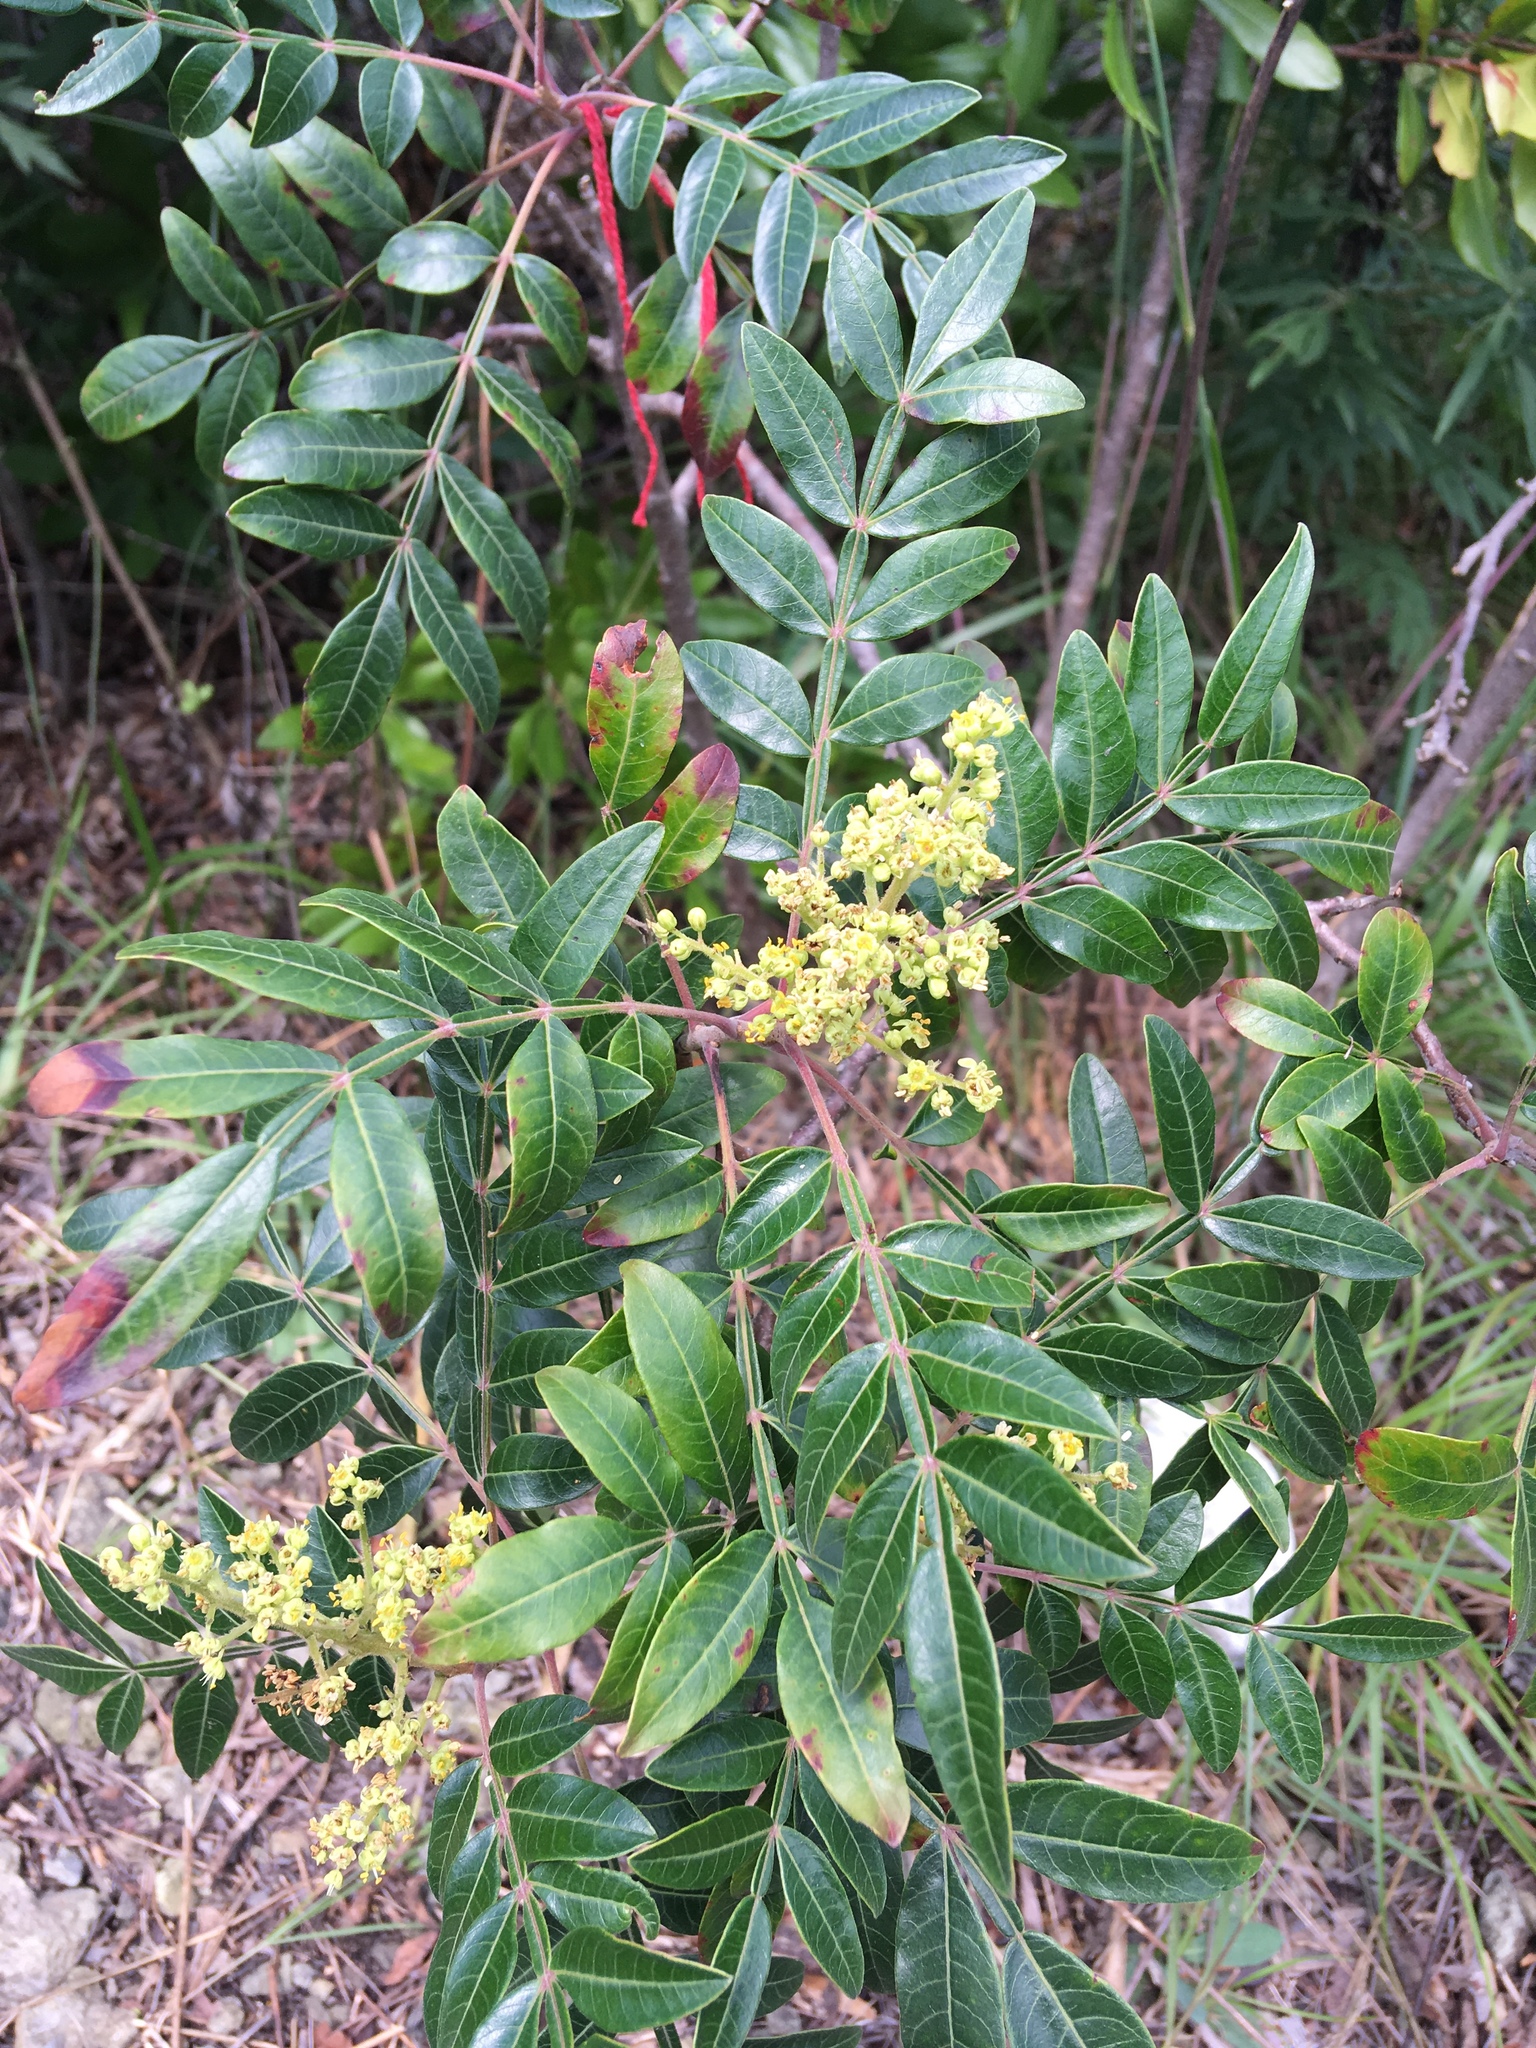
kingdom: Plantae
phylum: Tracheophyta
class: Magnoliopsida
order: Sapindales
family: Anacardiaceae
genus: Rhus
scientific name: Rhus copallina
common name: Shining sumac
